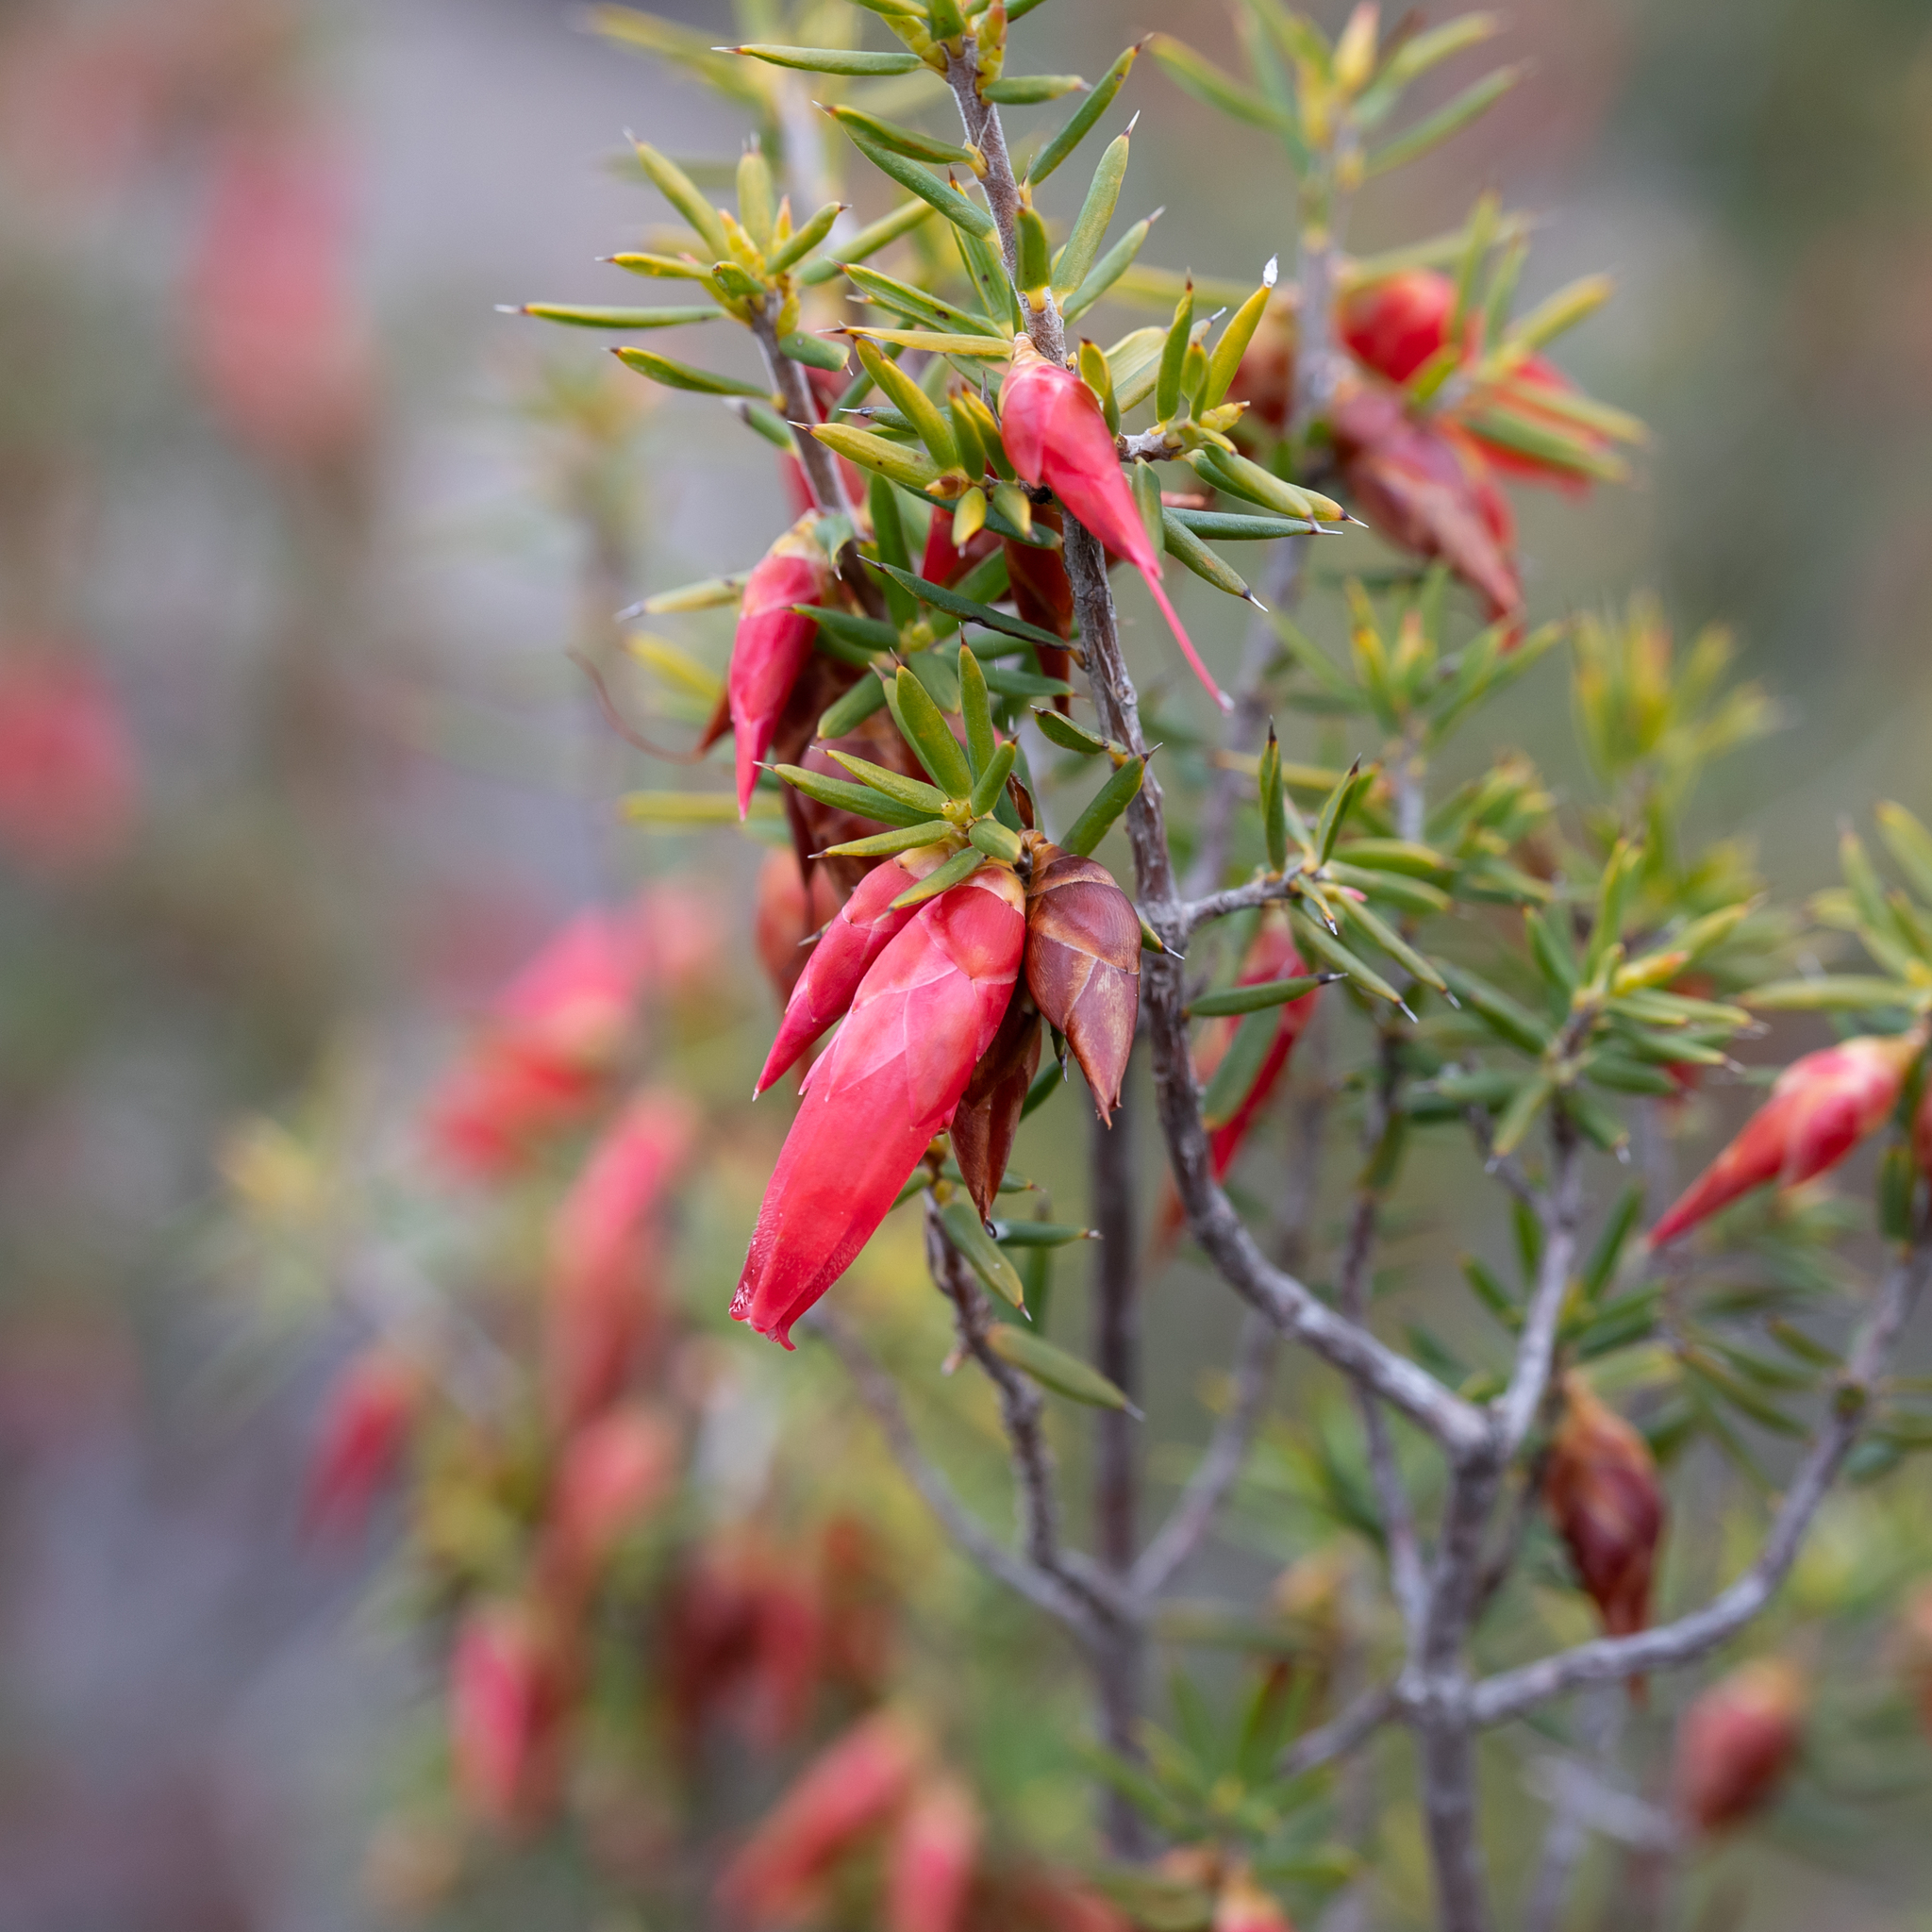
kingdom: Plantae
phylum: Tracheophyta
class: Magnoliopsida
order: Ericales
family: Ericaceae
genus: Stenanthera
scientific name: Stenanthera conostephioides
